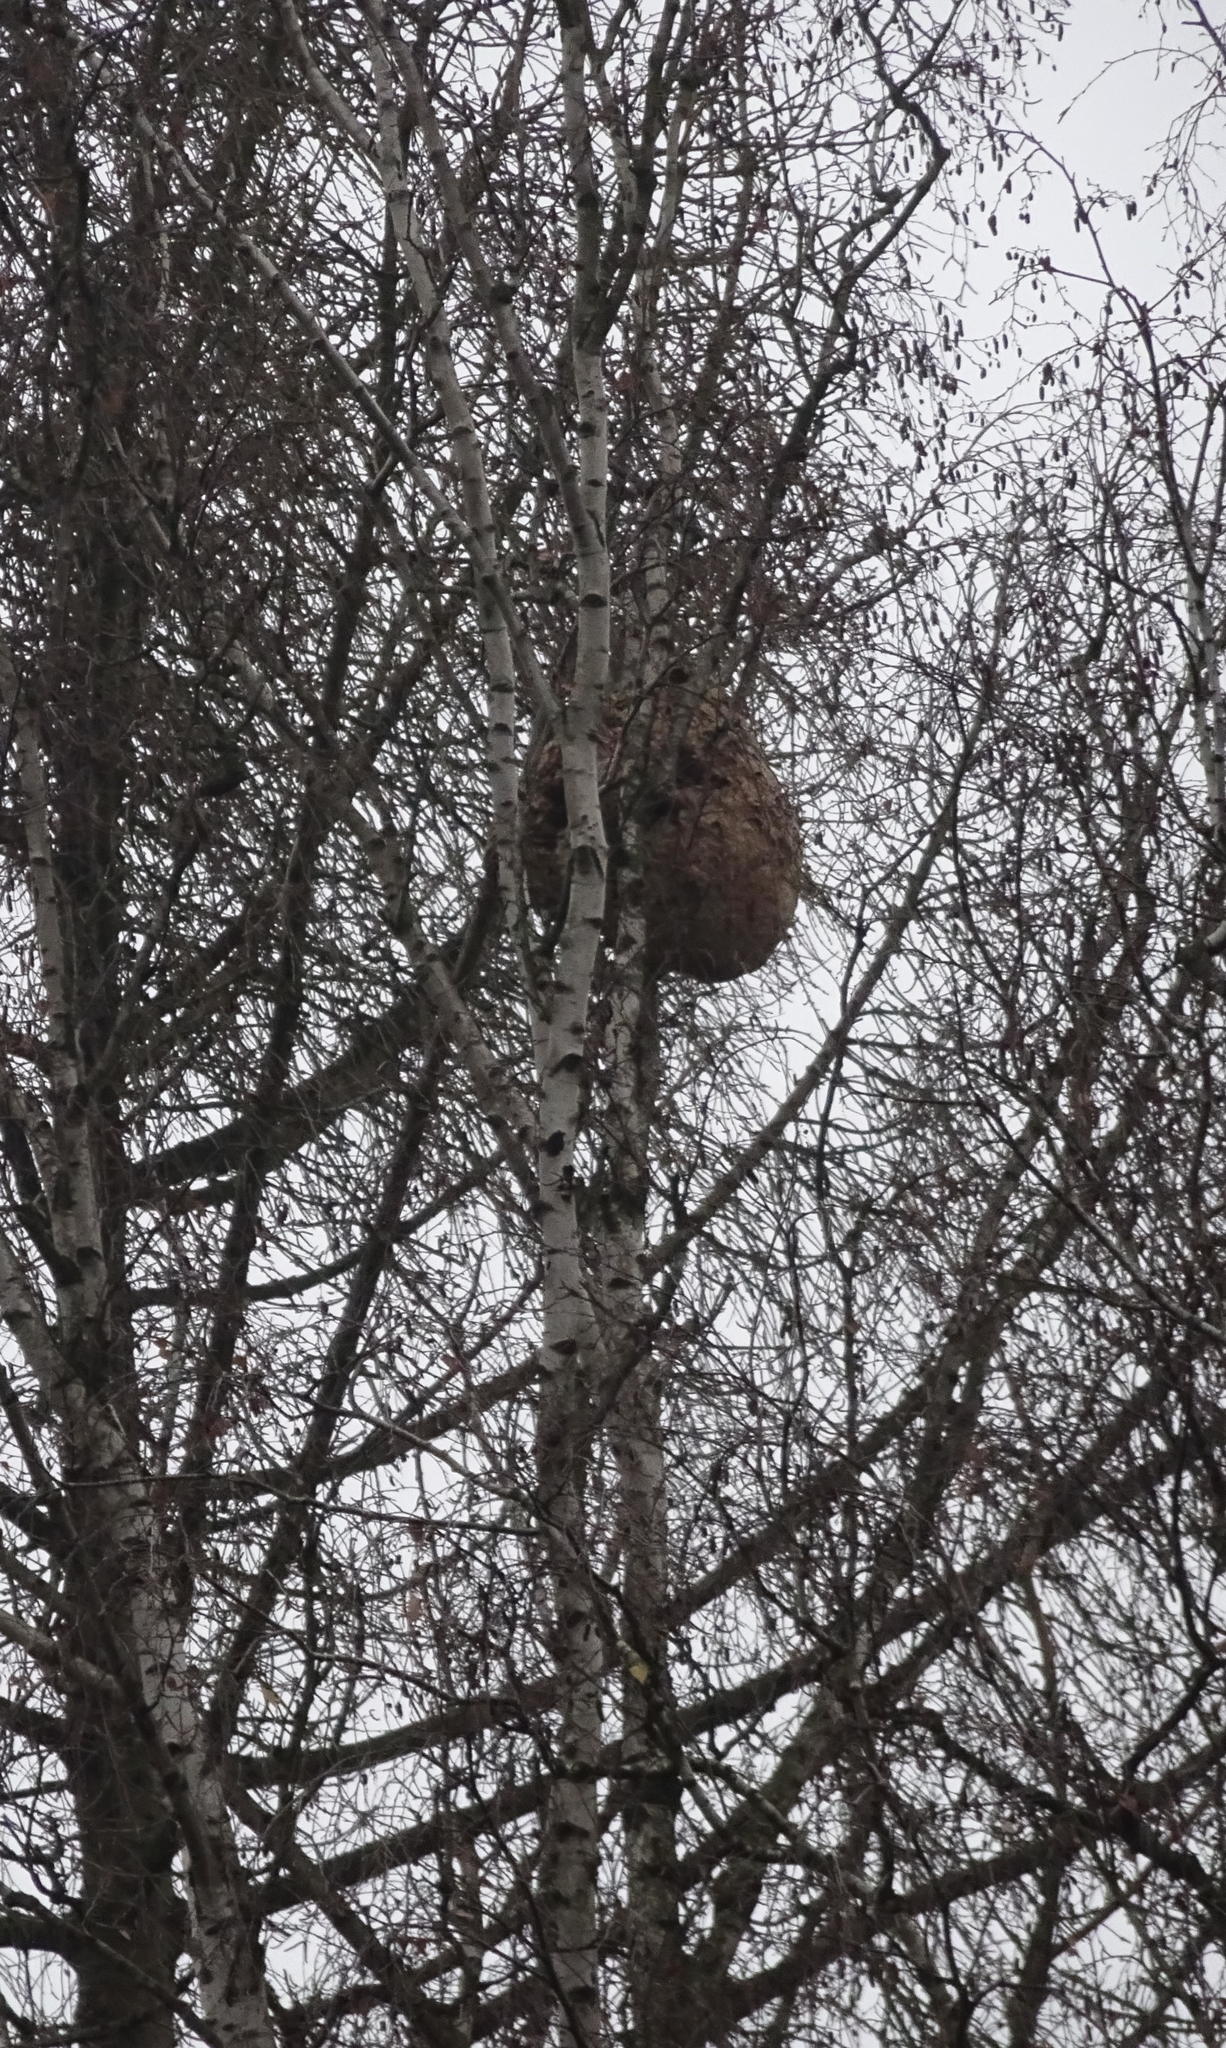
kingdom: Animalia
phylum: Arthropoda
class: Insecta
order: Hymenoptera
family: Vespidae
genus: Vespa
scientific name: Vespa velutina
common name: Asian hornet
